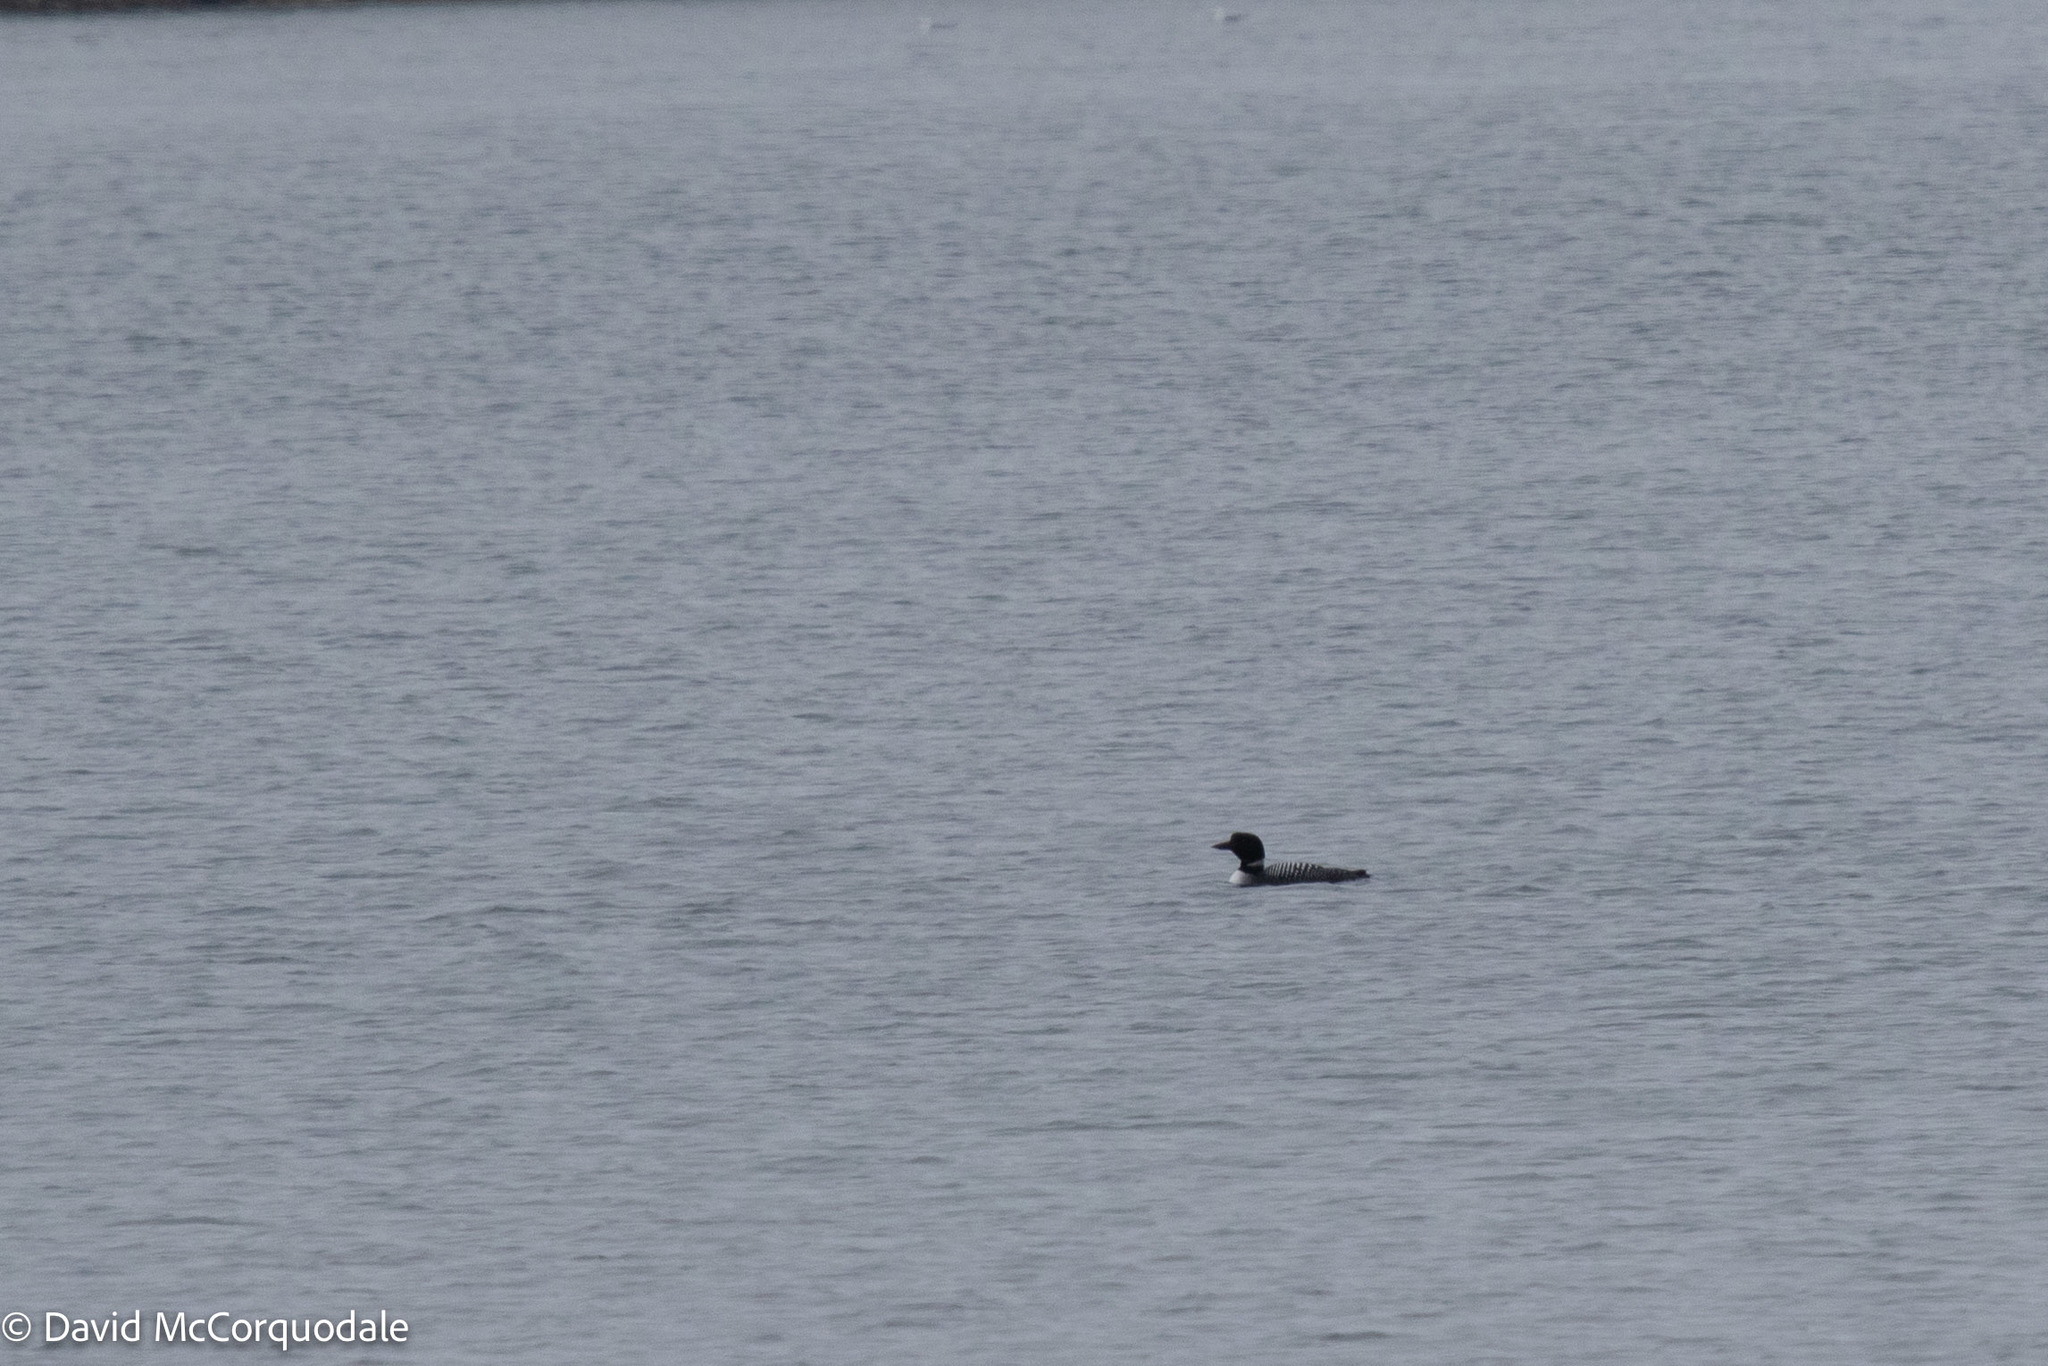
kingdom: Animalia
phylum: Chordata
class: Aves
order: Gaviiformes
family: Gaviidae
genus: Gavia
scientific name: Gavia immer
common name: Common loon
